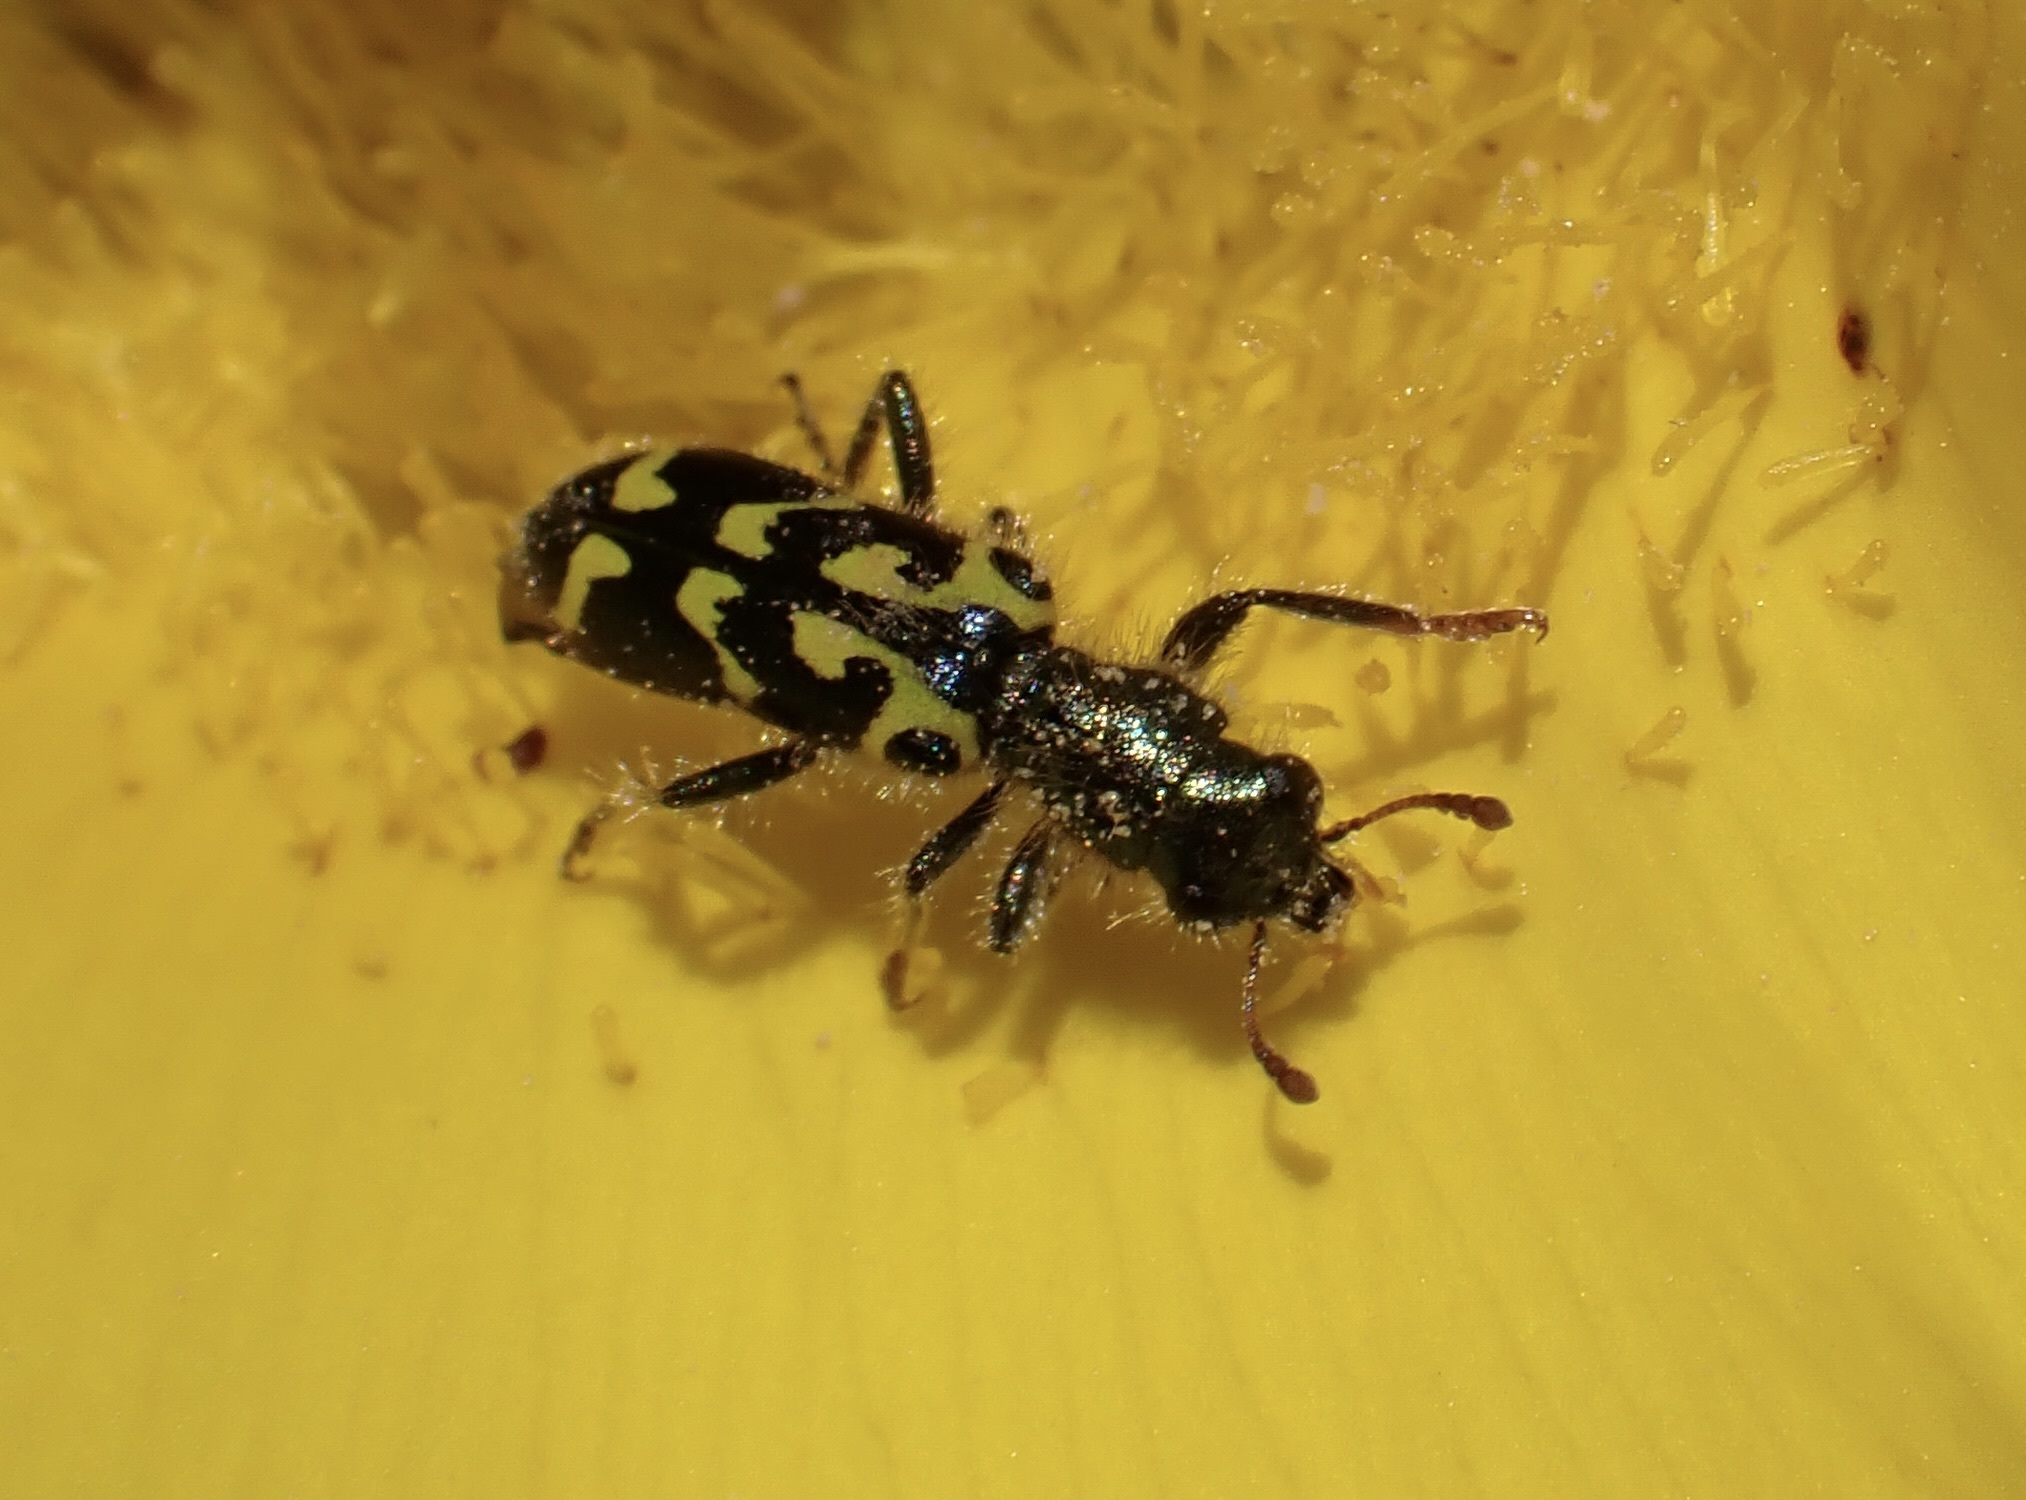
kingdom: Animalia
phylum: Arthropoda
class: Insecta
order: Coleoptera
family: Cleridae
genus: Trichodes
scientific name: Trichodes ornatus
